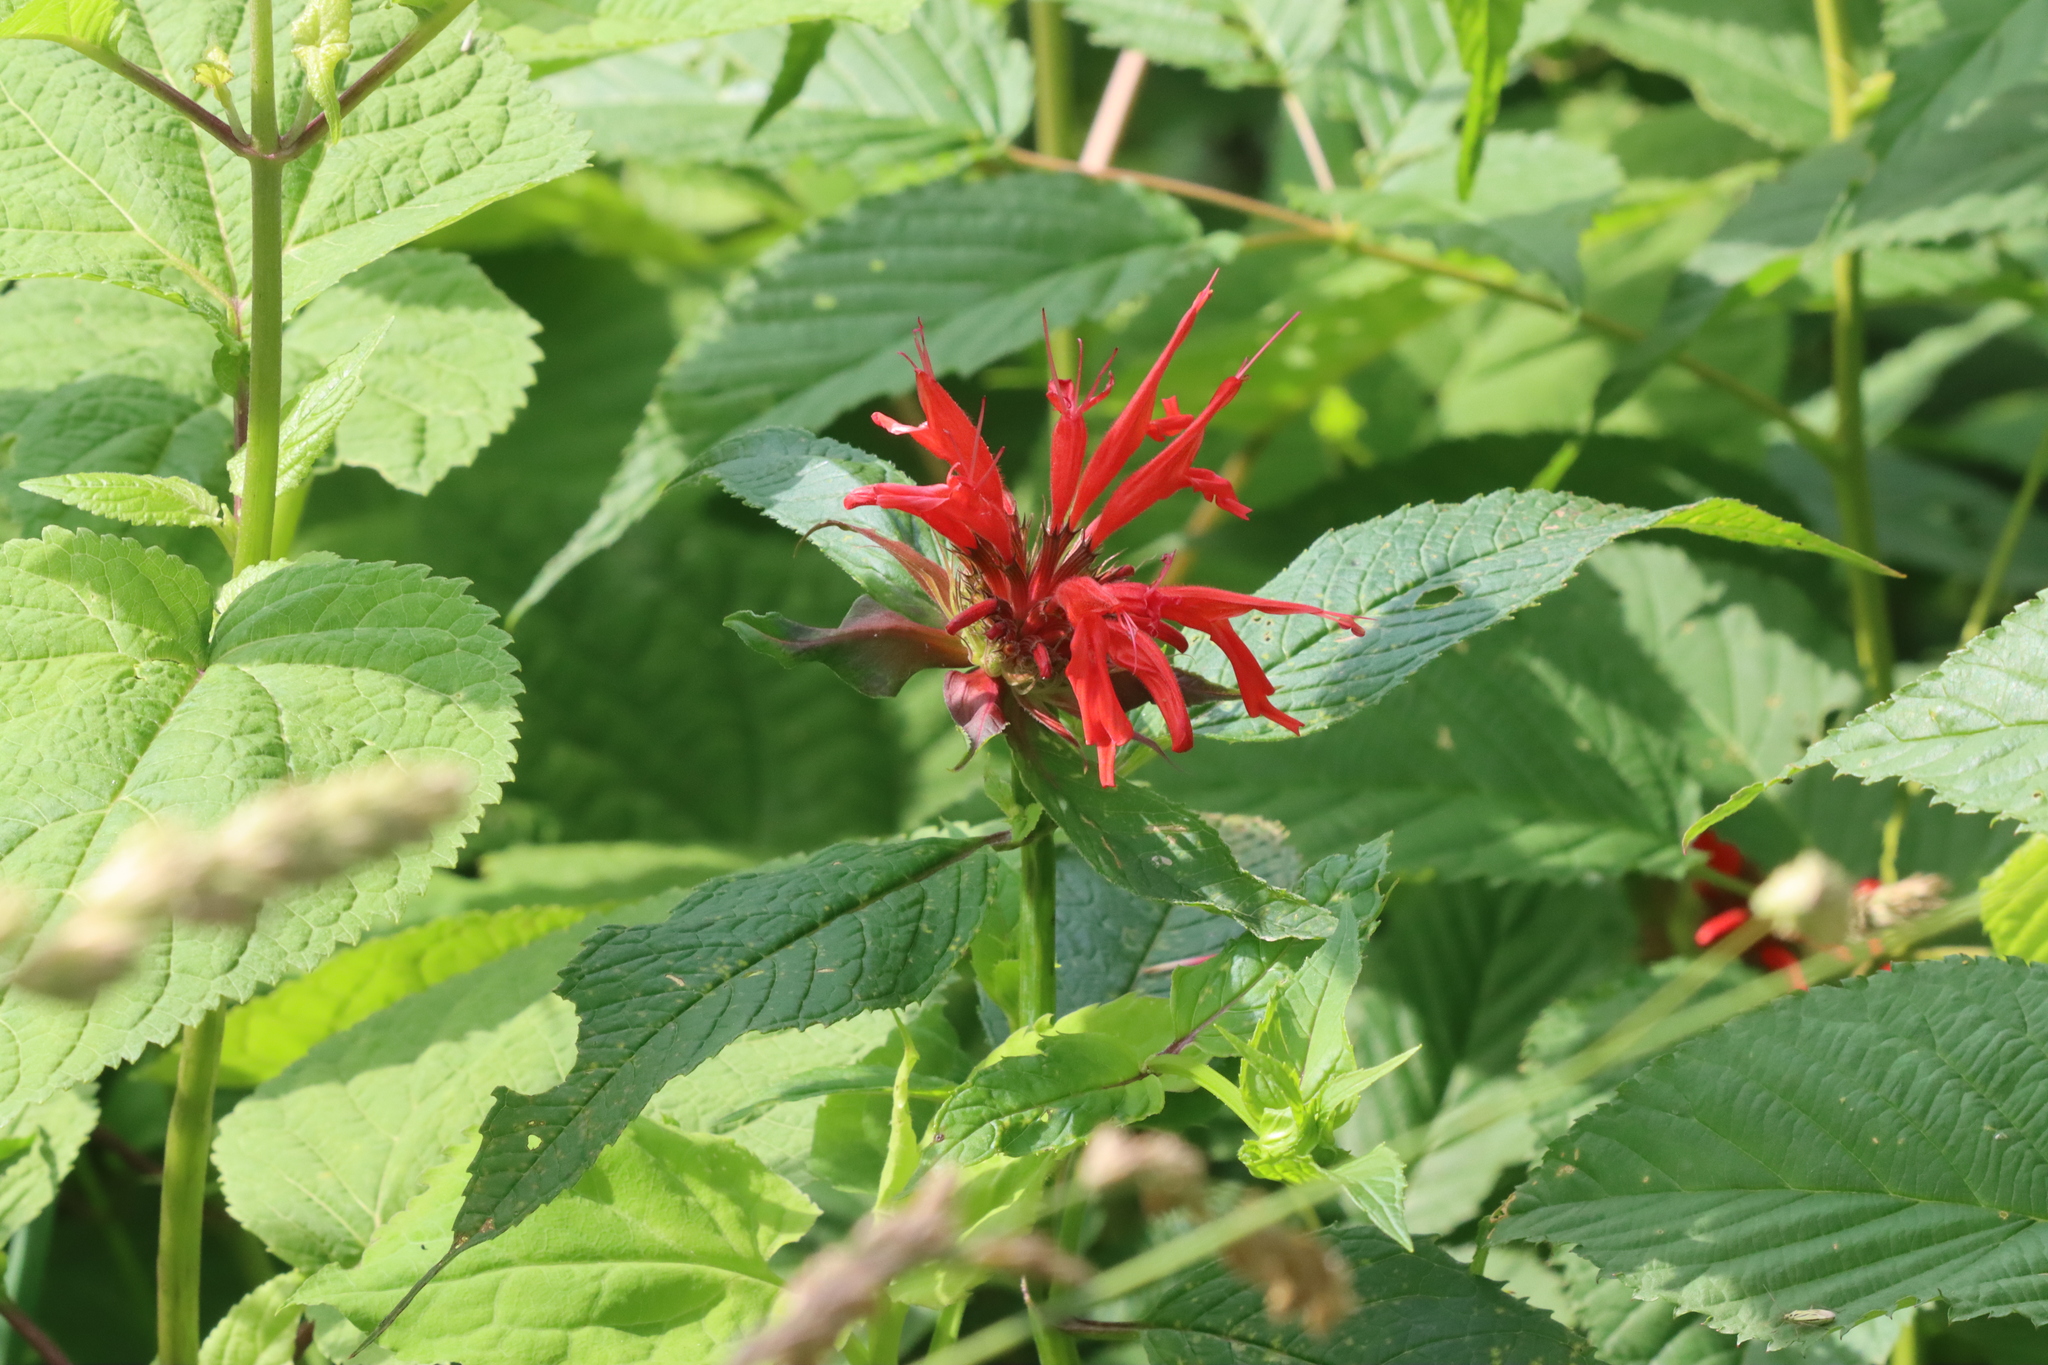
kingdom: Plantae
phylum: Tracheophyta
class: Magnoliopsida
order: Lamiales
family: Lamiaceae
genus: Monarda
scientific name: Monarda didyma
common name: Beebalm
